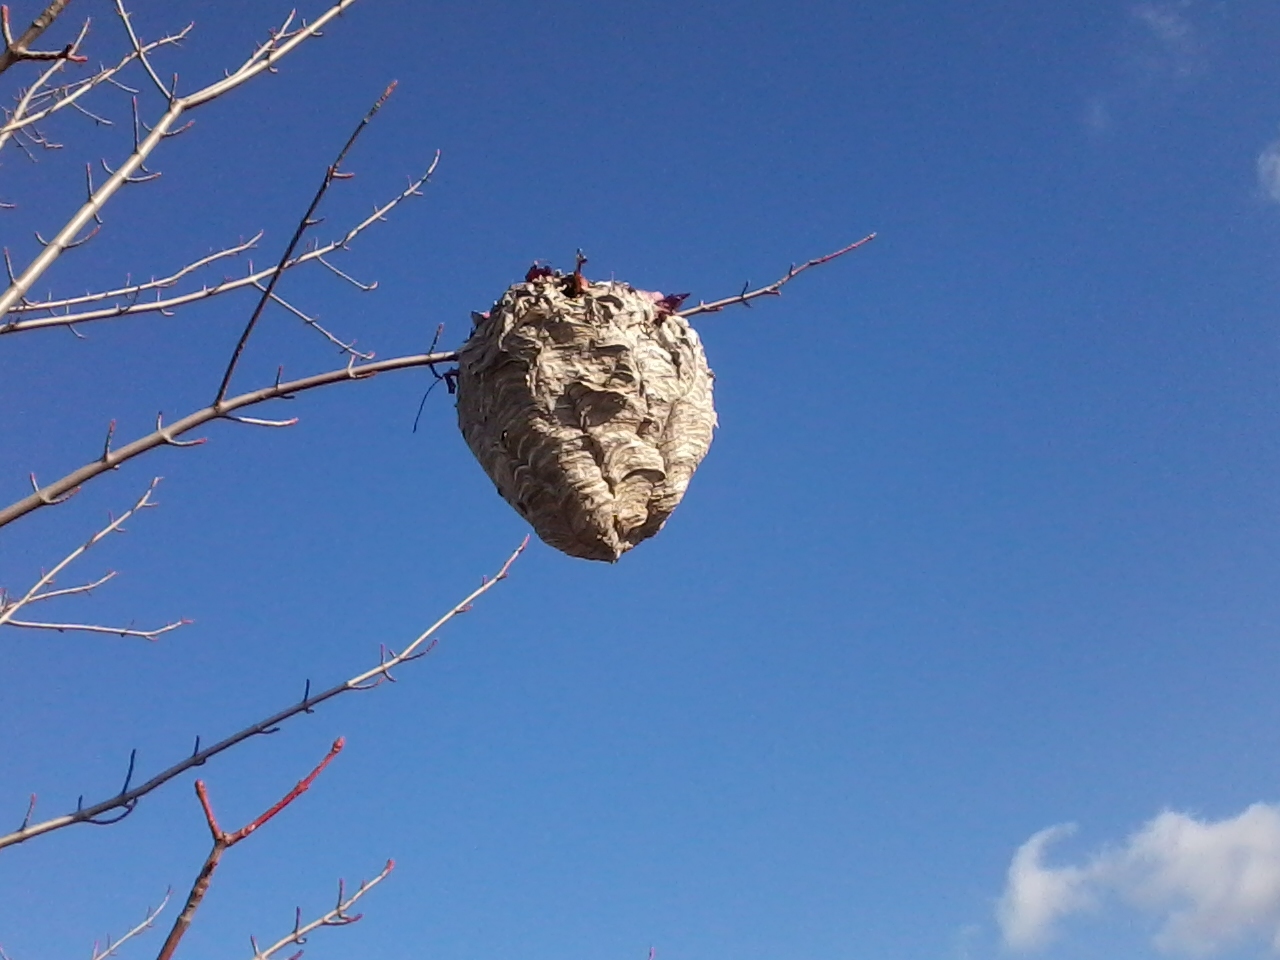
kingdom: Animalia
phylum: Arthropoda
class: Insecta
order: Hymenoptera
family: Vespidae
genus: Dolichovespula
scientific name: Dolichovespula maculata
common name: Bald-faced hornet
